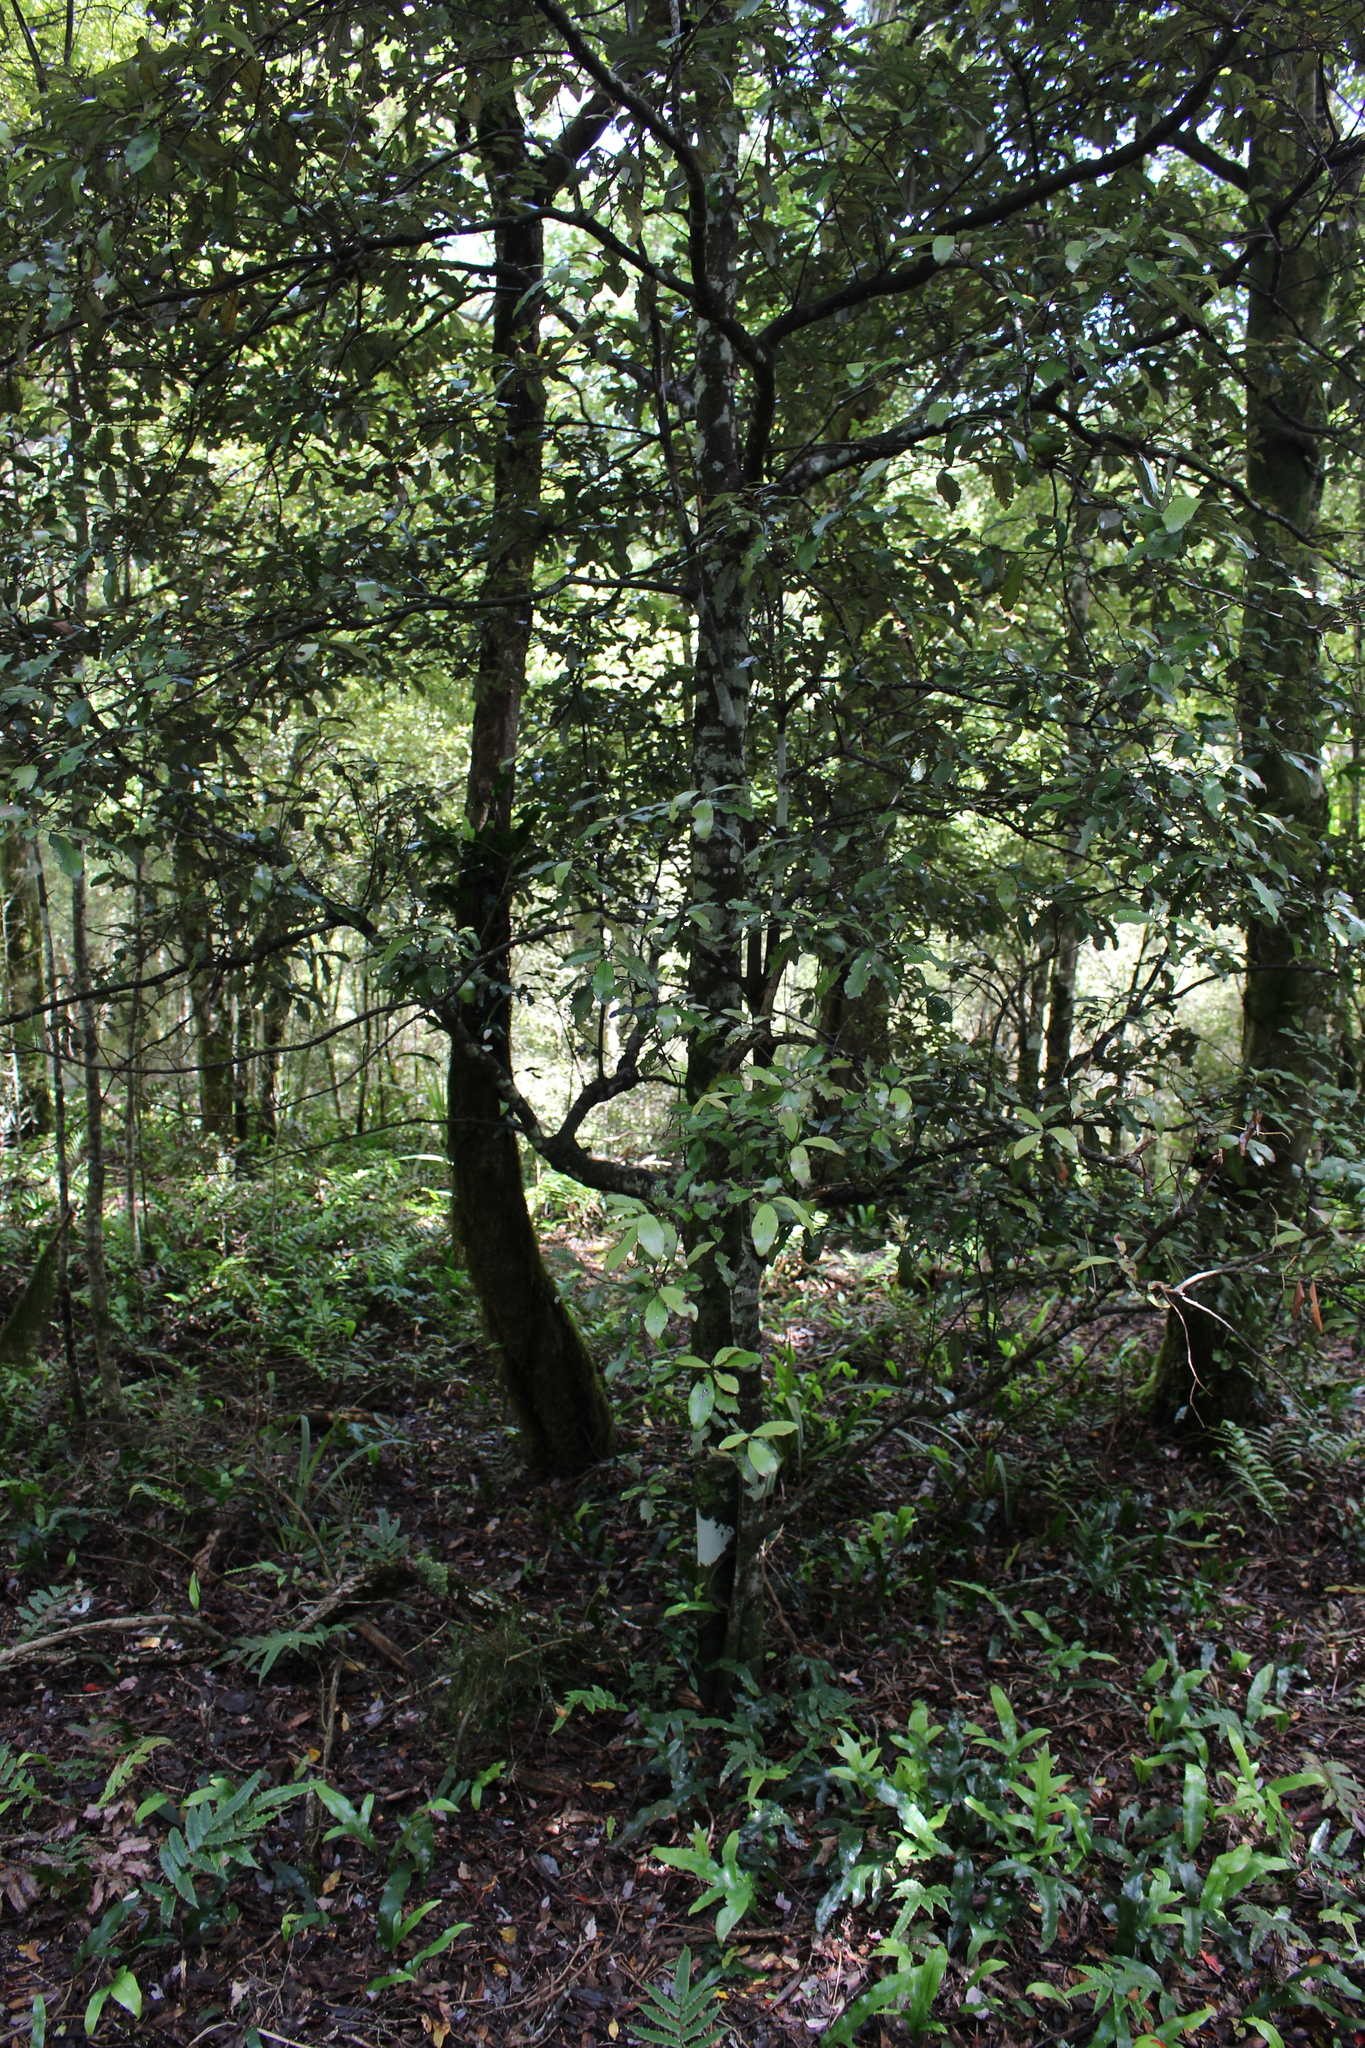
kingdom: Plantae
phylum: Tracheophyta
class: Magnoliopsida
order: Canellales
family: Winteraceae
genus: Pseudowintera
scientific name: Pseudowintera colorata
